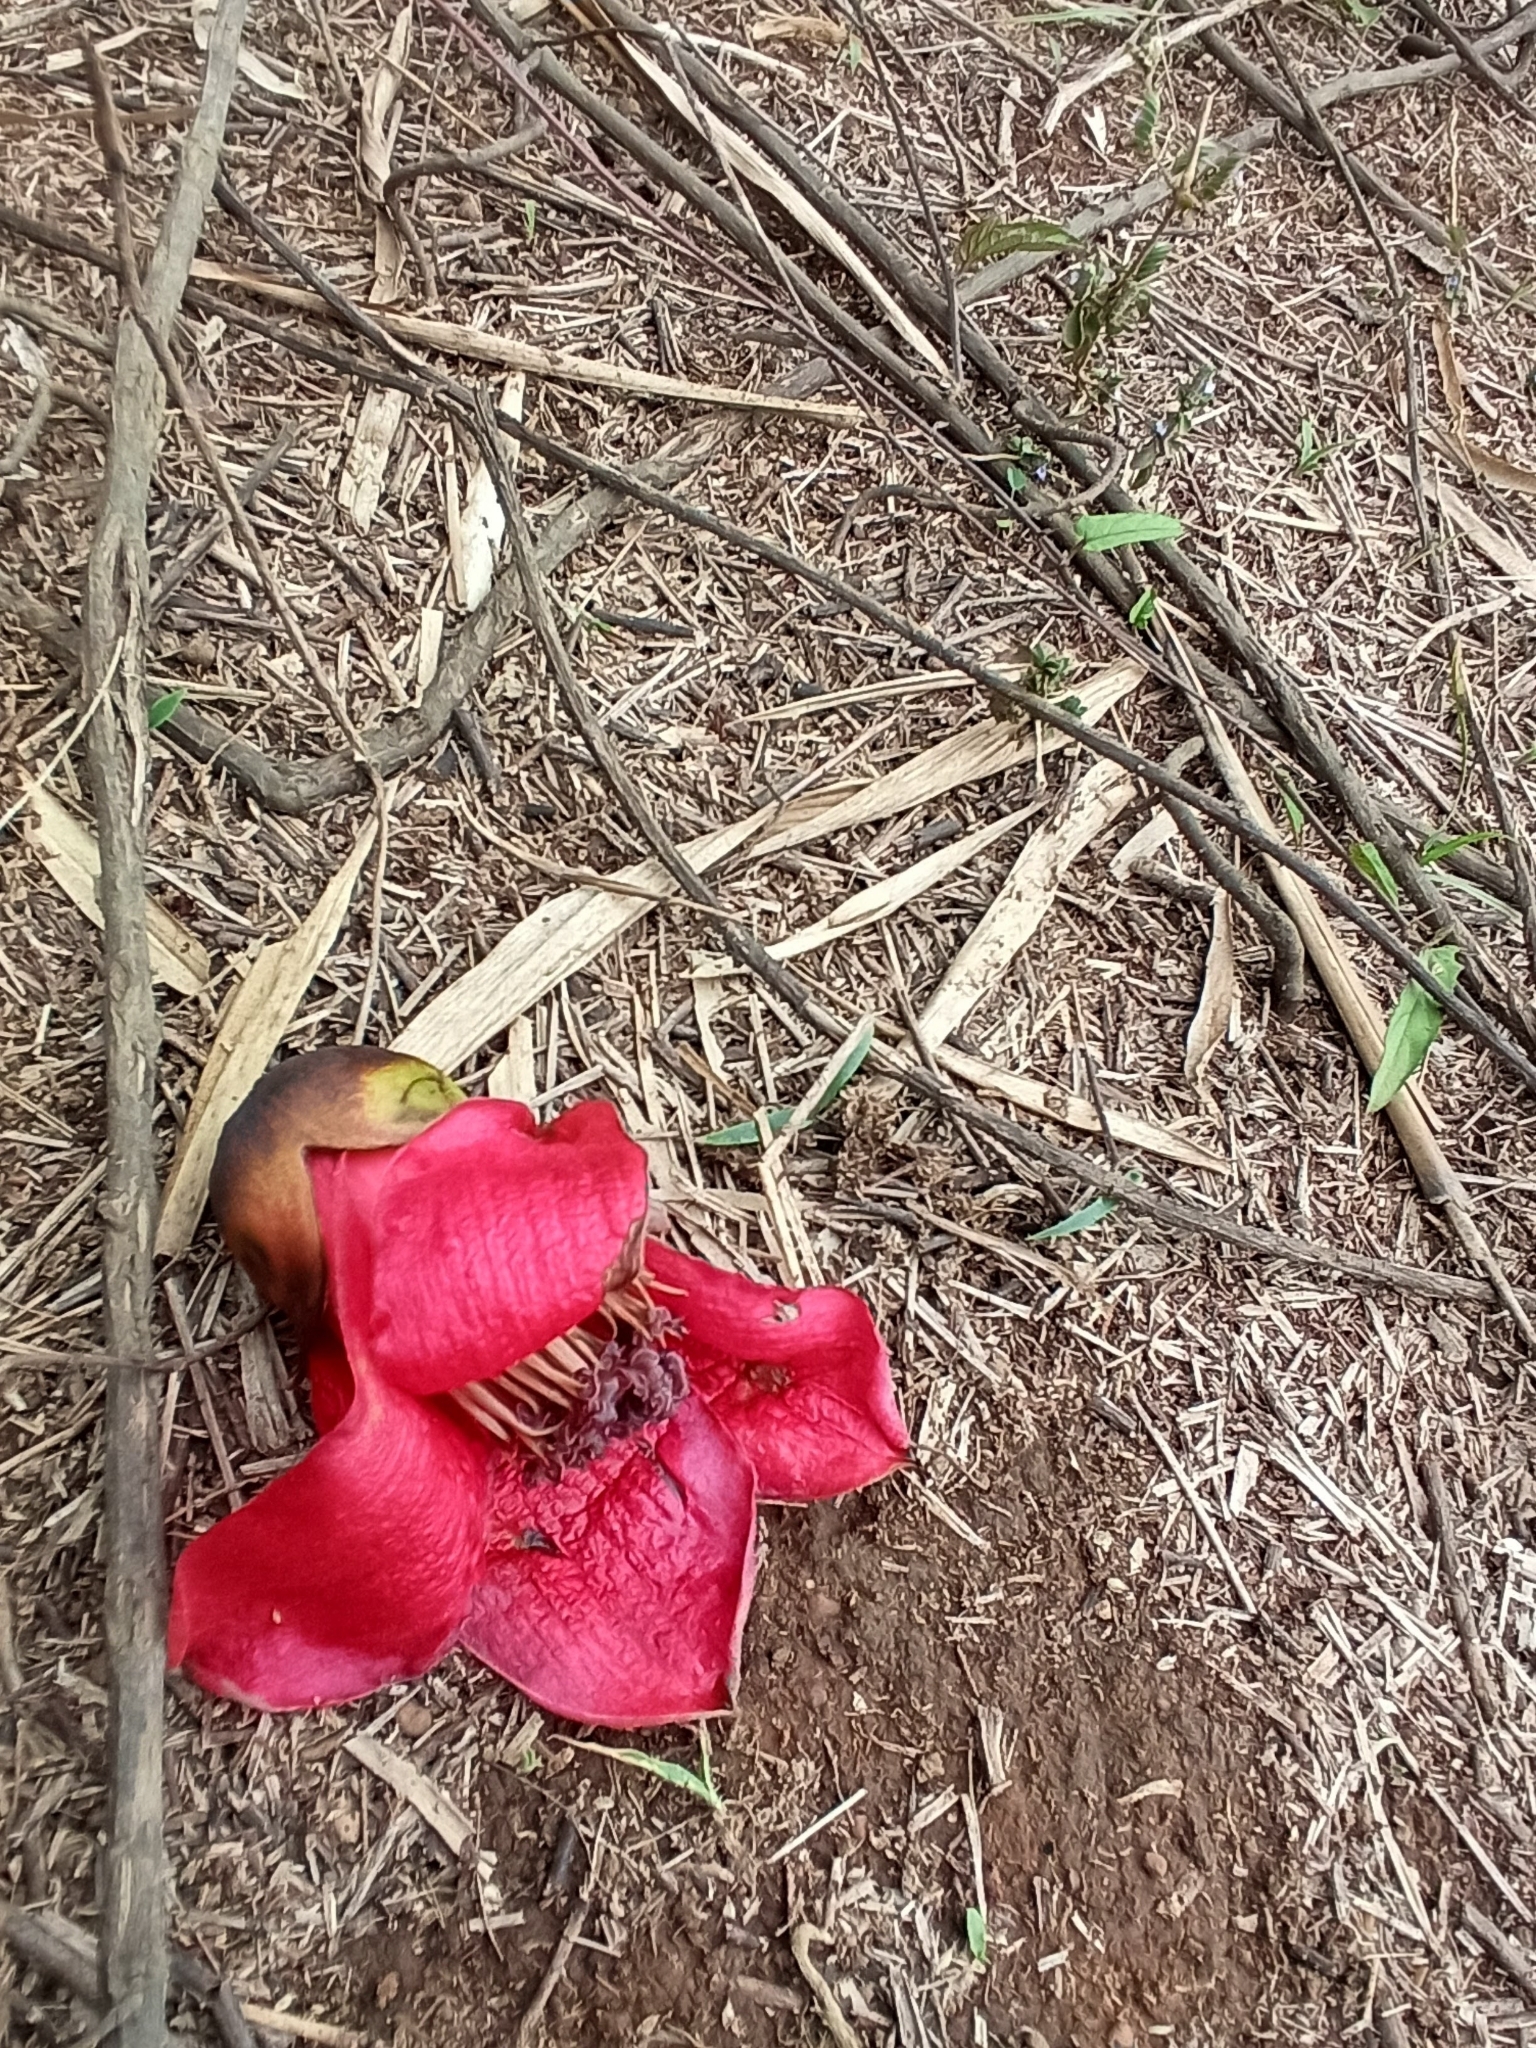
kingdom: Plantae
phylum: Tracheophyta
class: Magnoliopsida
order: Malvales
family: Malvaceae
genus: Bombax
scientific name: Bombax ceiba
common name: Northern-cottonwood
